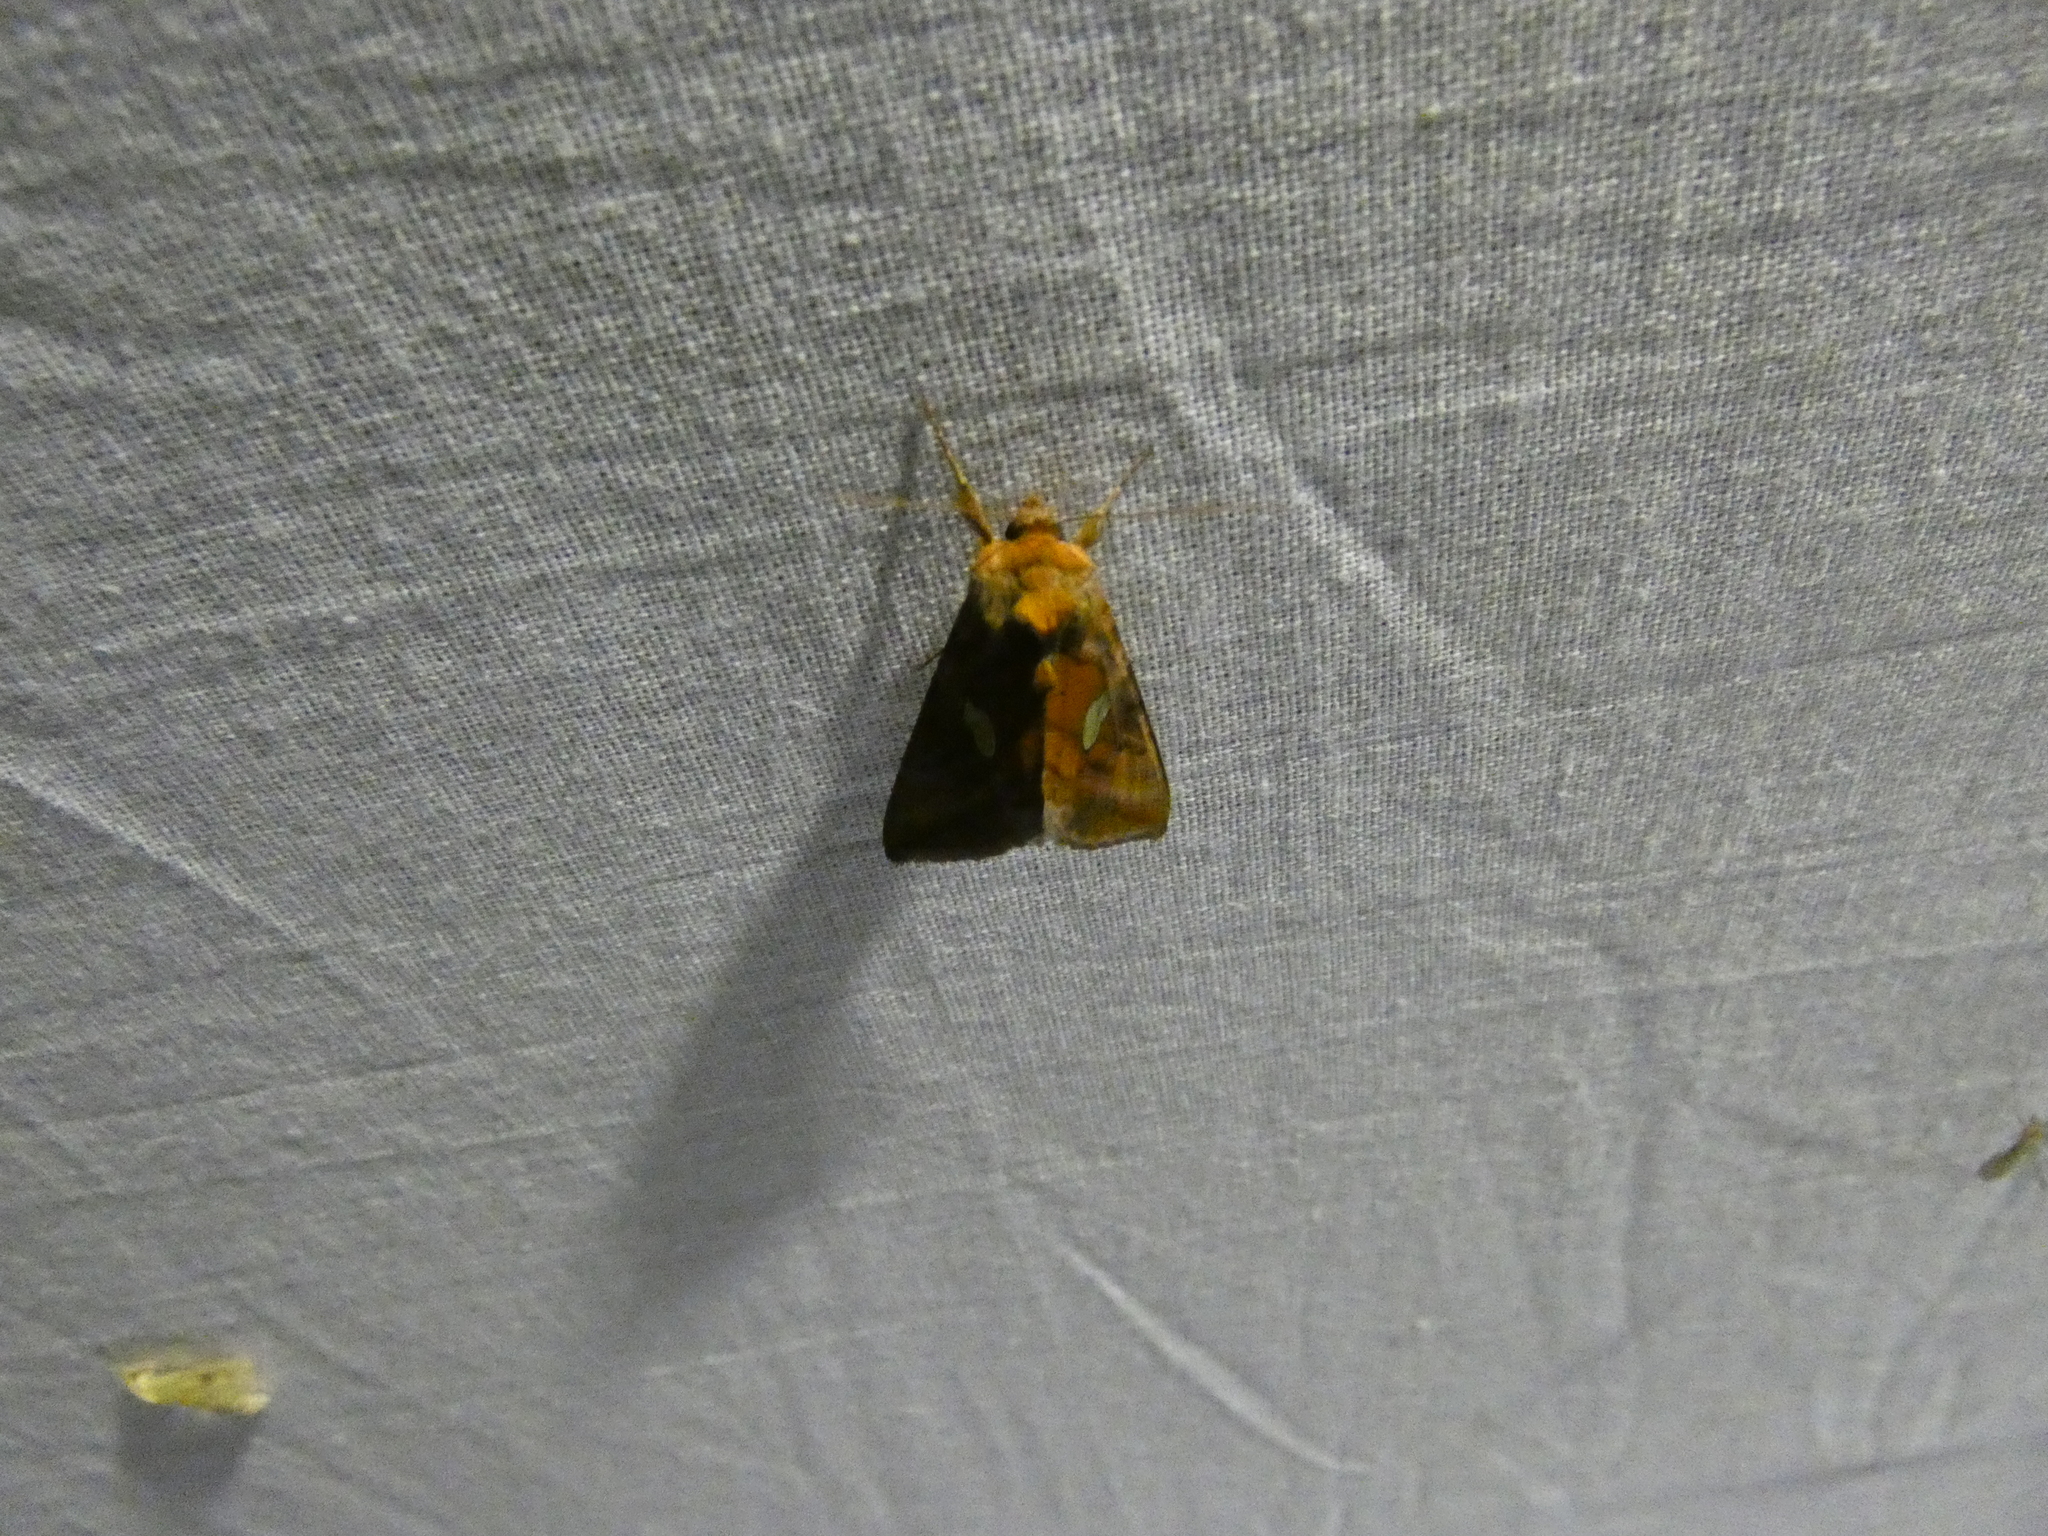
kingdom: Animalia
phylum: Arthropoda
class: Insecta
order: Lepidoptera
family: Noctuidae
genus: Autographa
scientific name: Autographa excelsa
